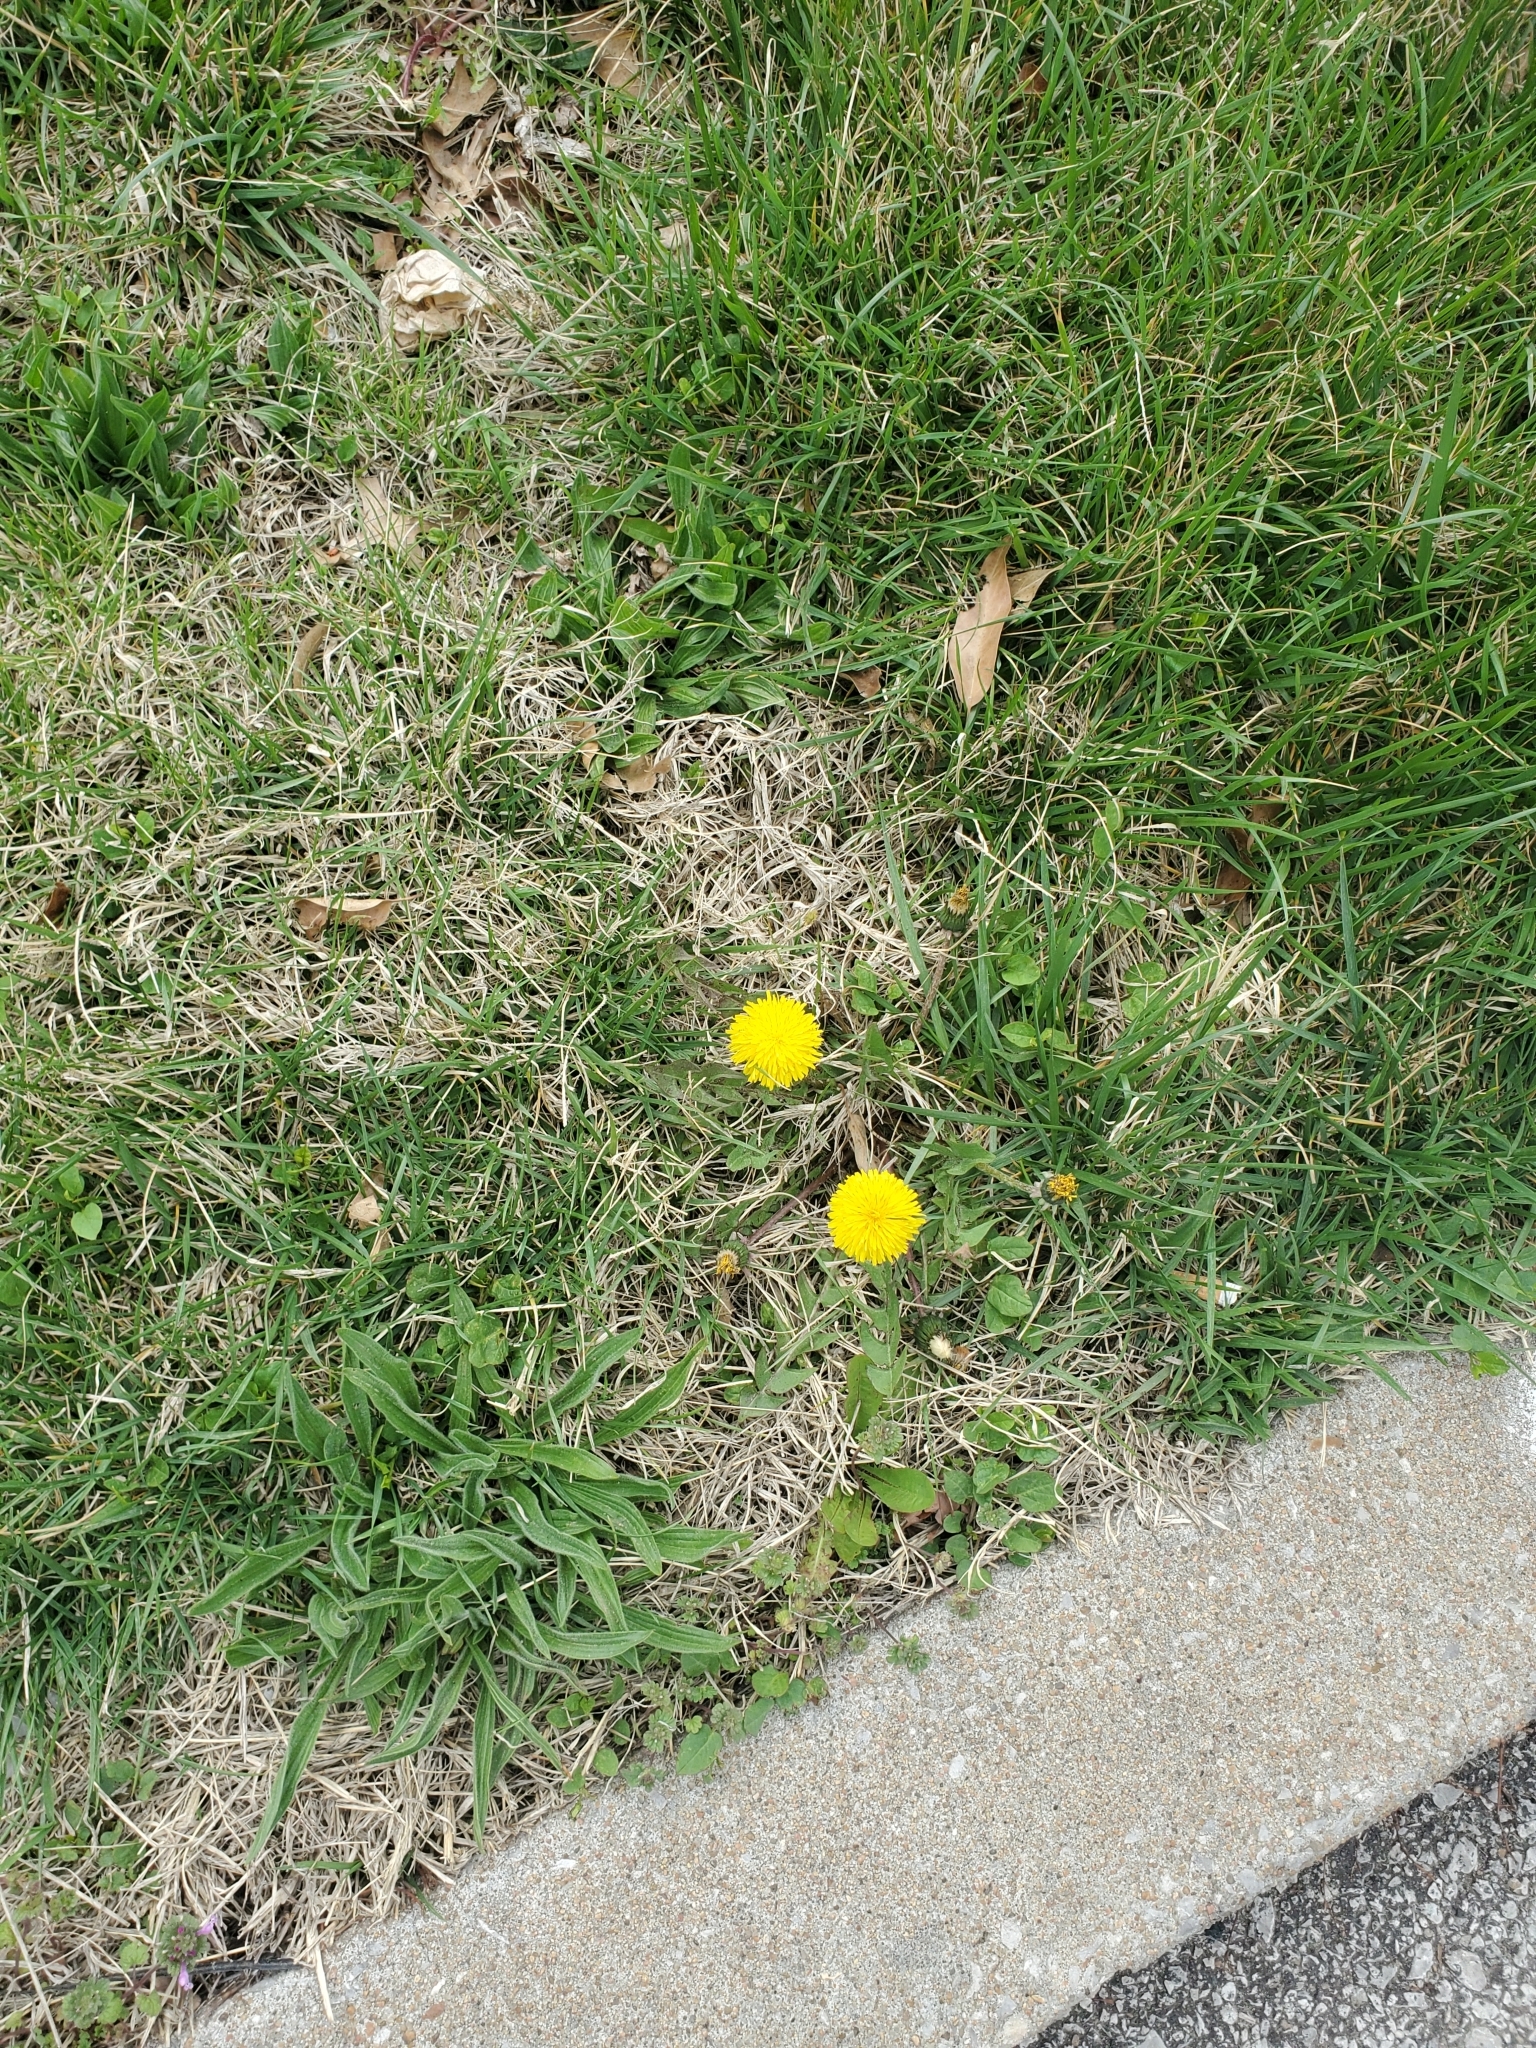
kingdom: Plantae
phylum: Tracheophyta
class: Magnoliopsida
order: Asterales
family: Asteraceae
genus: Taraxacum
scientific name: Taraxacum officinale
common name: Common dandelion
